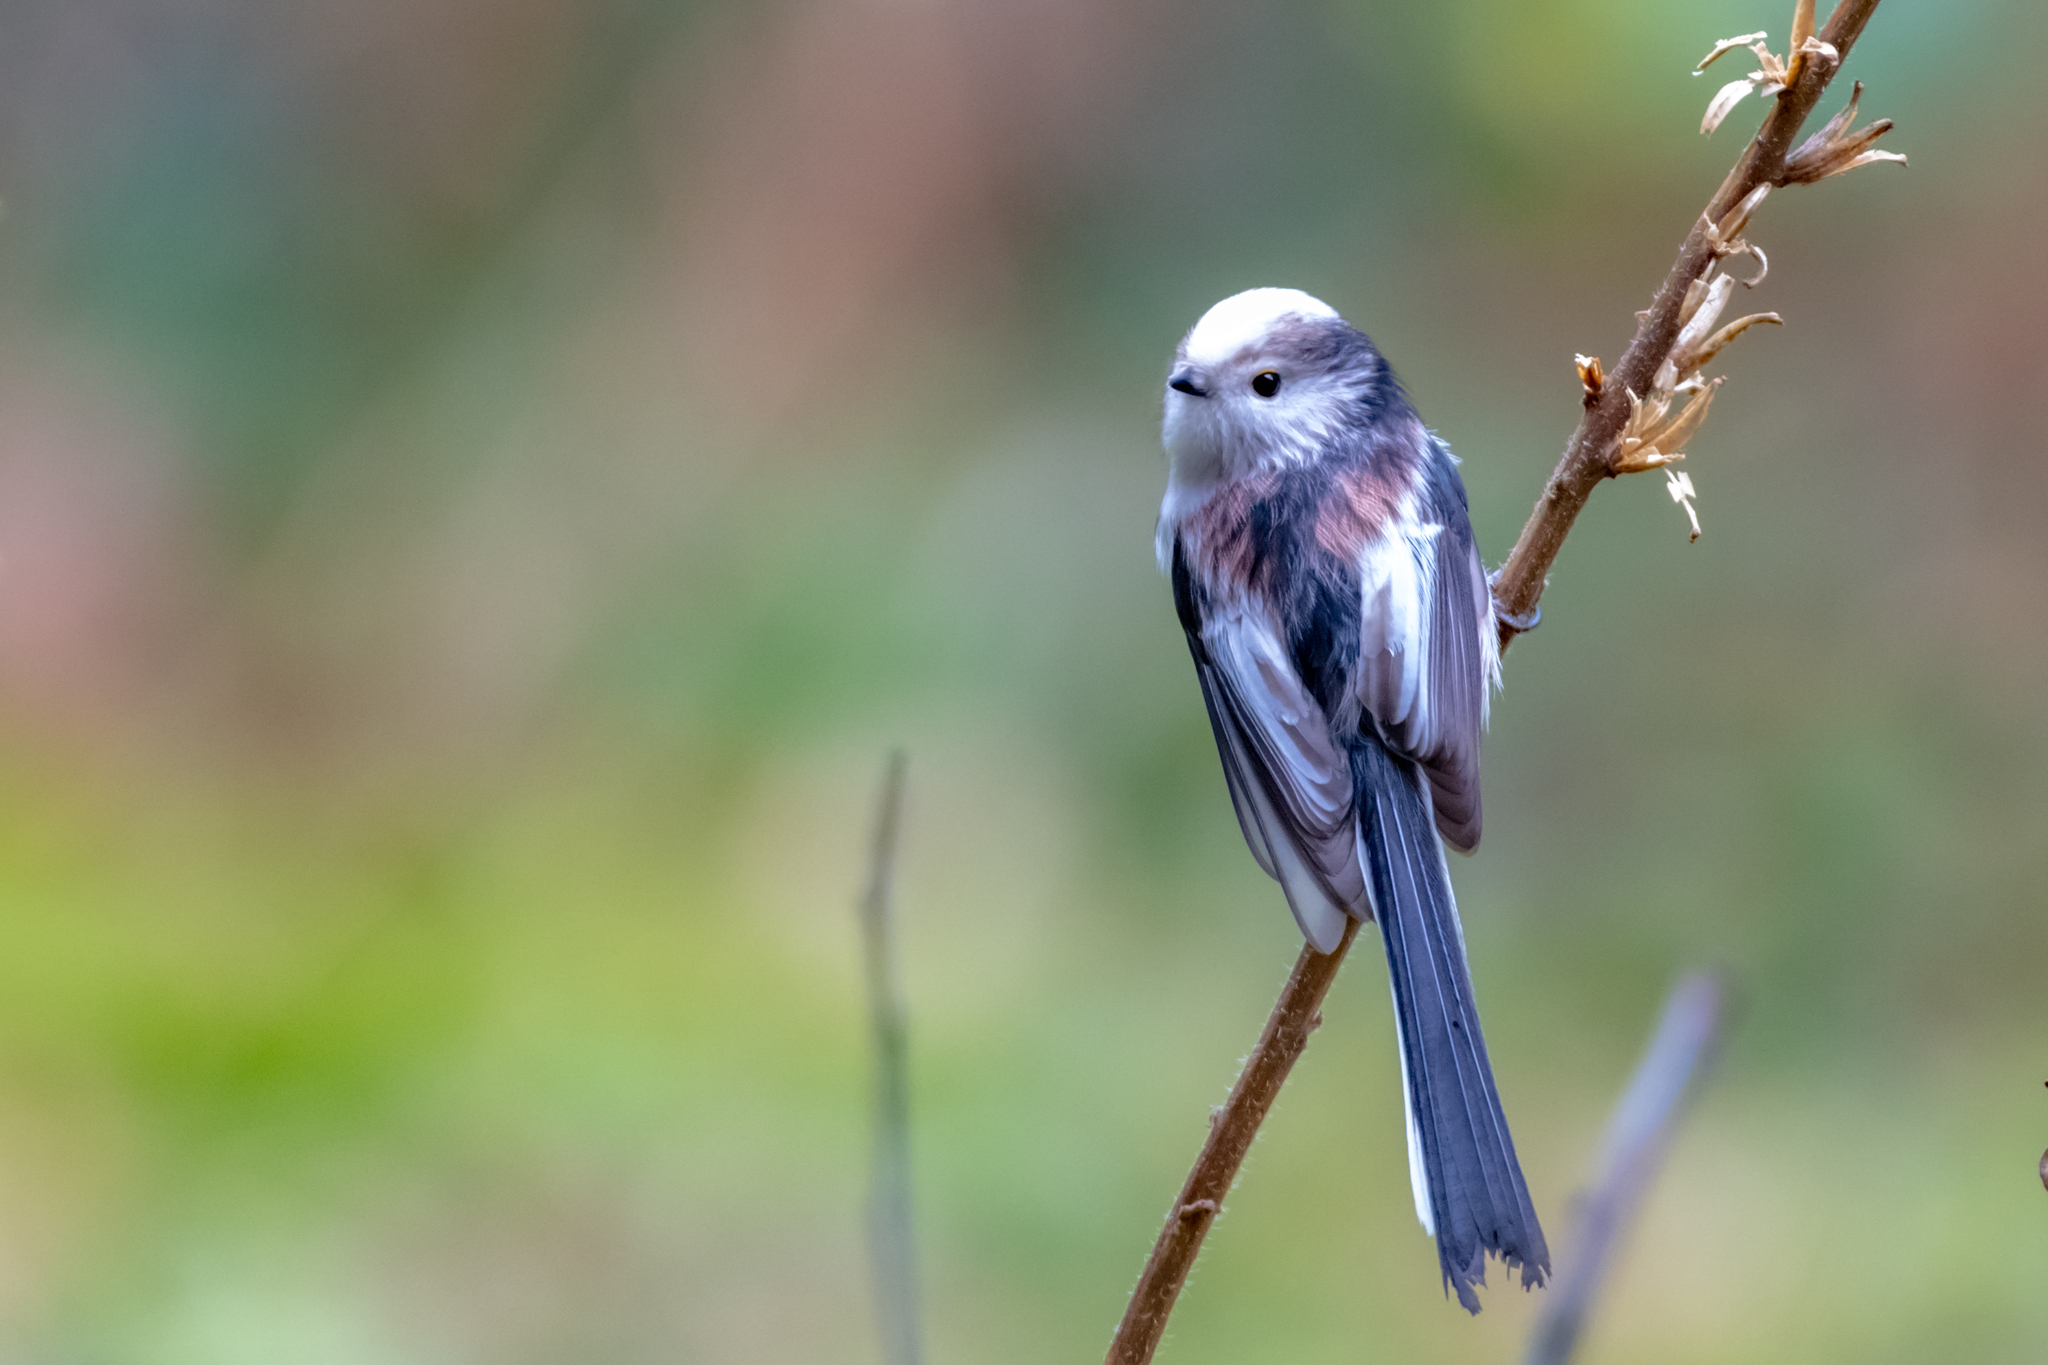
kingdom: Animalia
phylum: Chordata
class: Aves
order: Passeriformes
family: Aegithalidae
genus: Aegithalos
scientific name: Aegithalos caudatus
